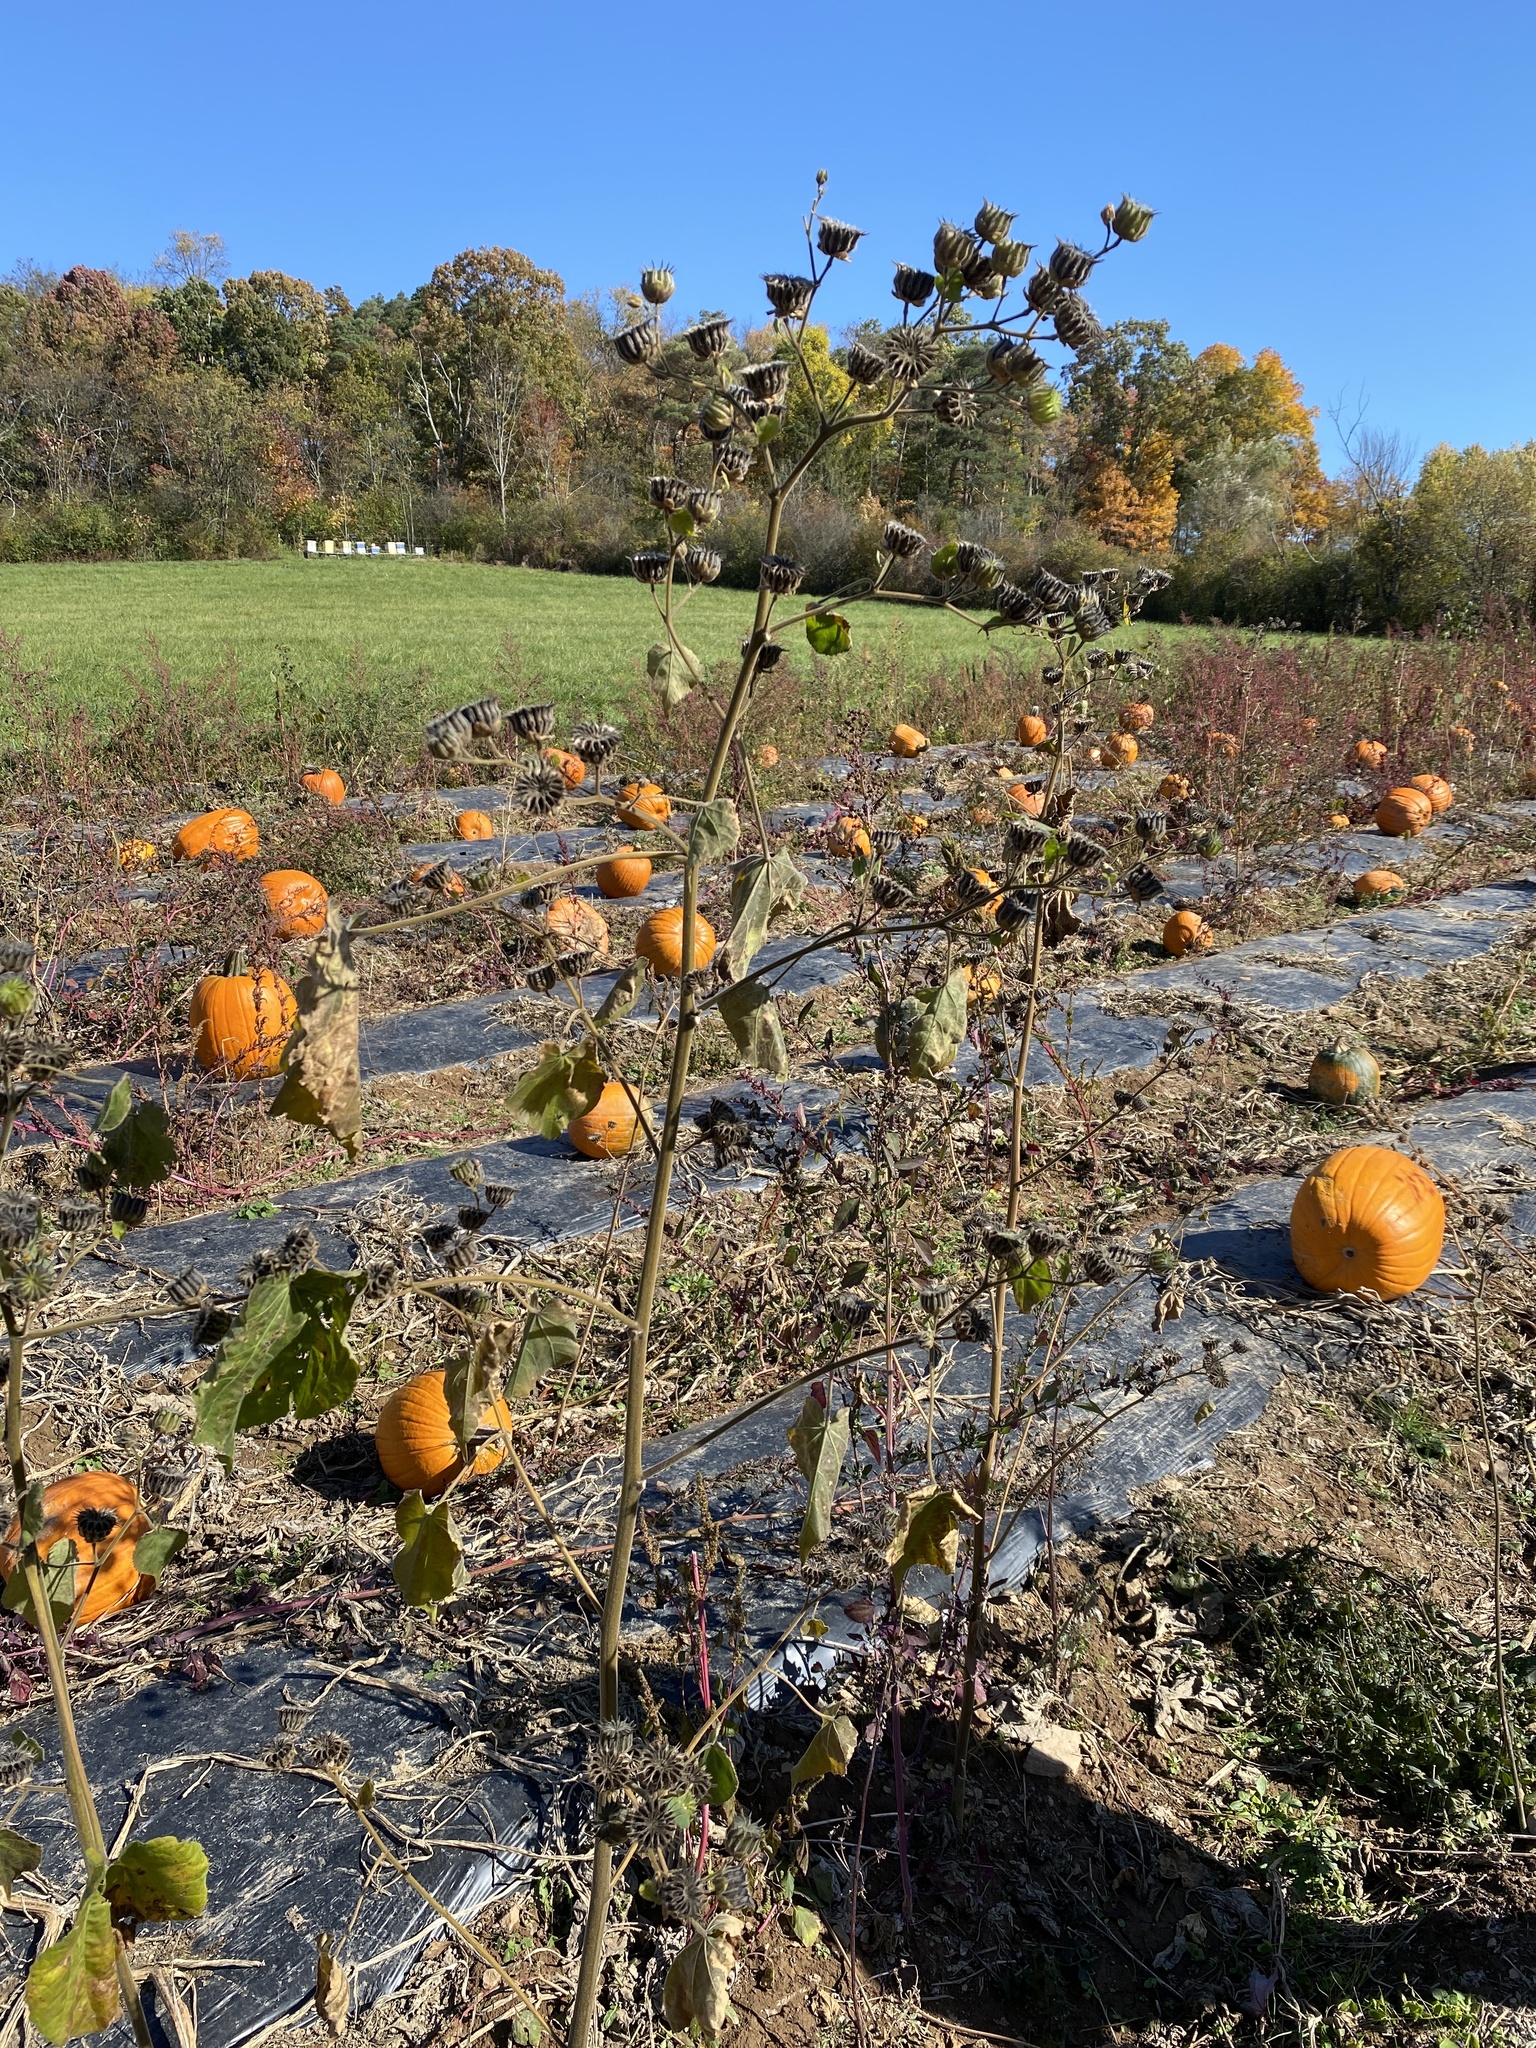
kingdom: Plantae
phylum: Tracheophyta
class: Magnoliopsida
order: Malvales
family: Malvaceae
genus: Abutilon
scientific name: Abutilon theophrasti
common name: Velvetleaf
